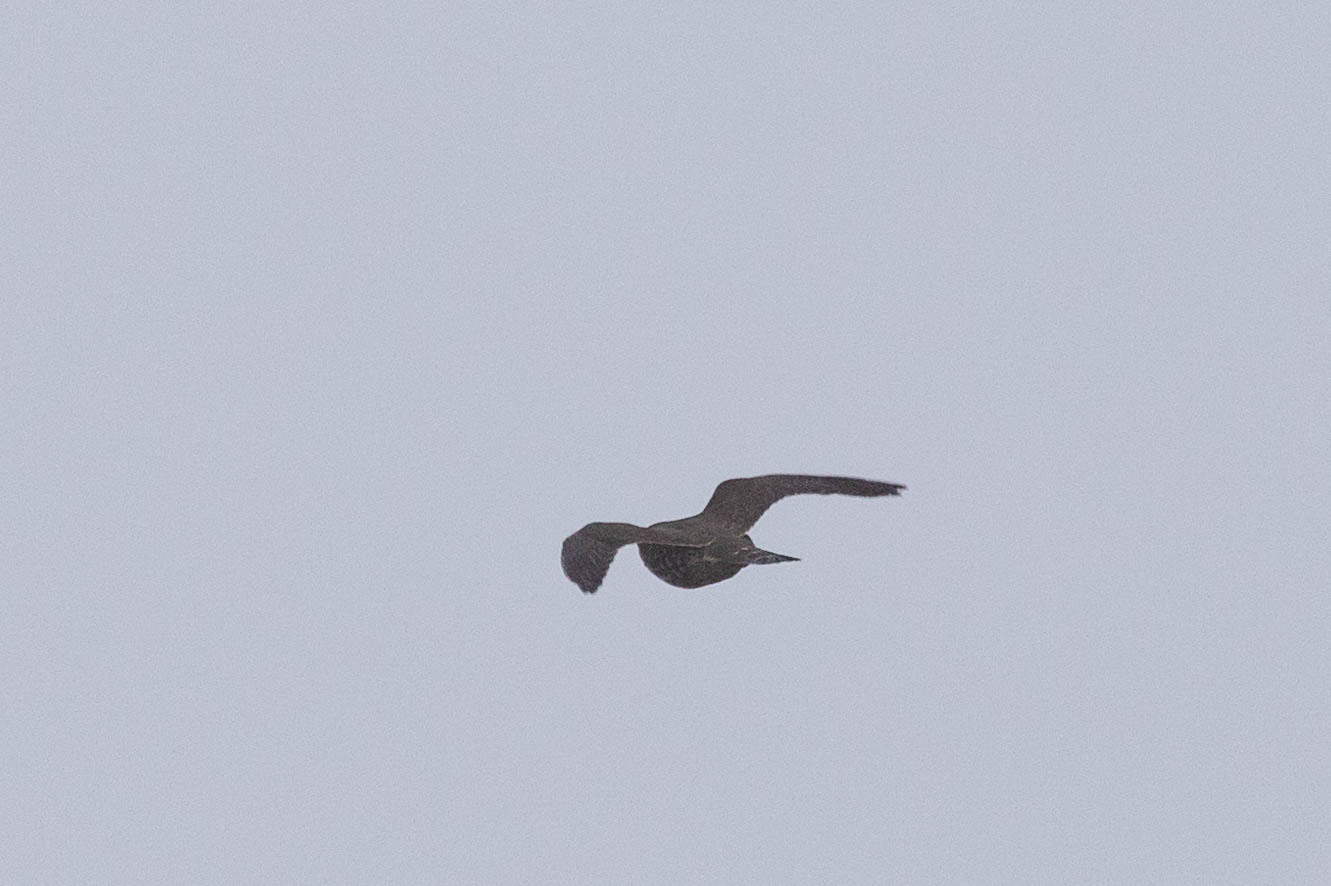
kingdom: Animalia
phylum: Chordata
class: Aves
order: Falconiformes
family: Falconidae
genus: Falco
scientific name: Falco columbarius
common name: Merlin
